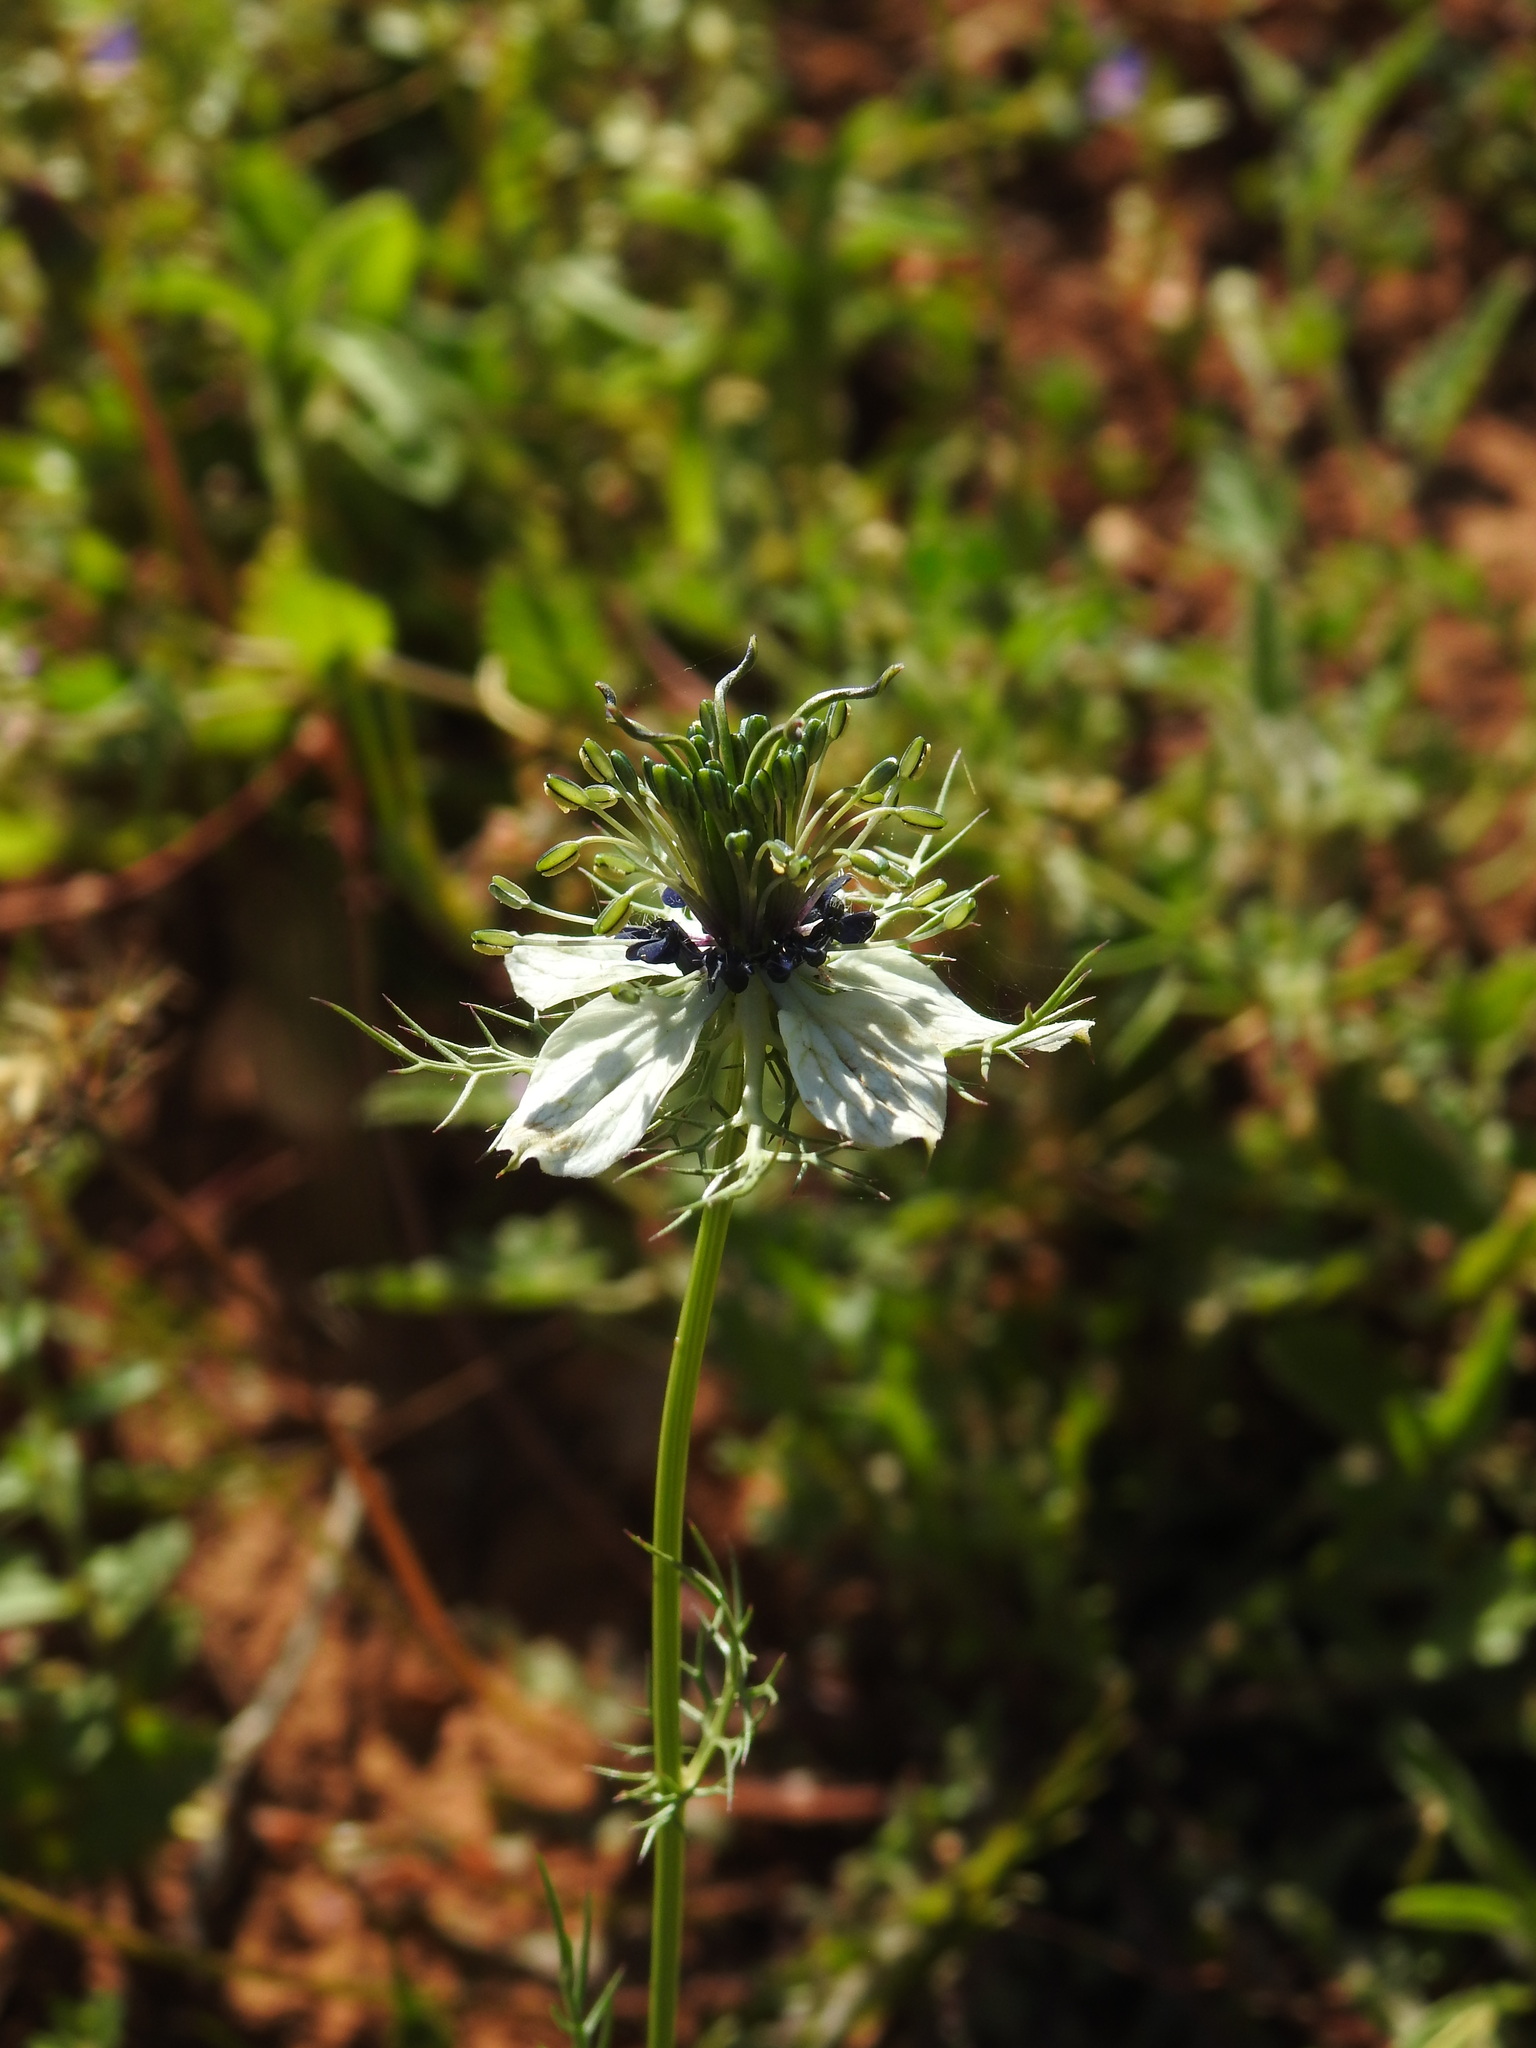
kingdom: Plantae
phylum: Tracheophyta
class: Magnoliopsida
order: Ranunculales
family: Ranunculaceae
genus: Nigella
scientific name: Nigella damascena
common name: Love-in-a-mist
